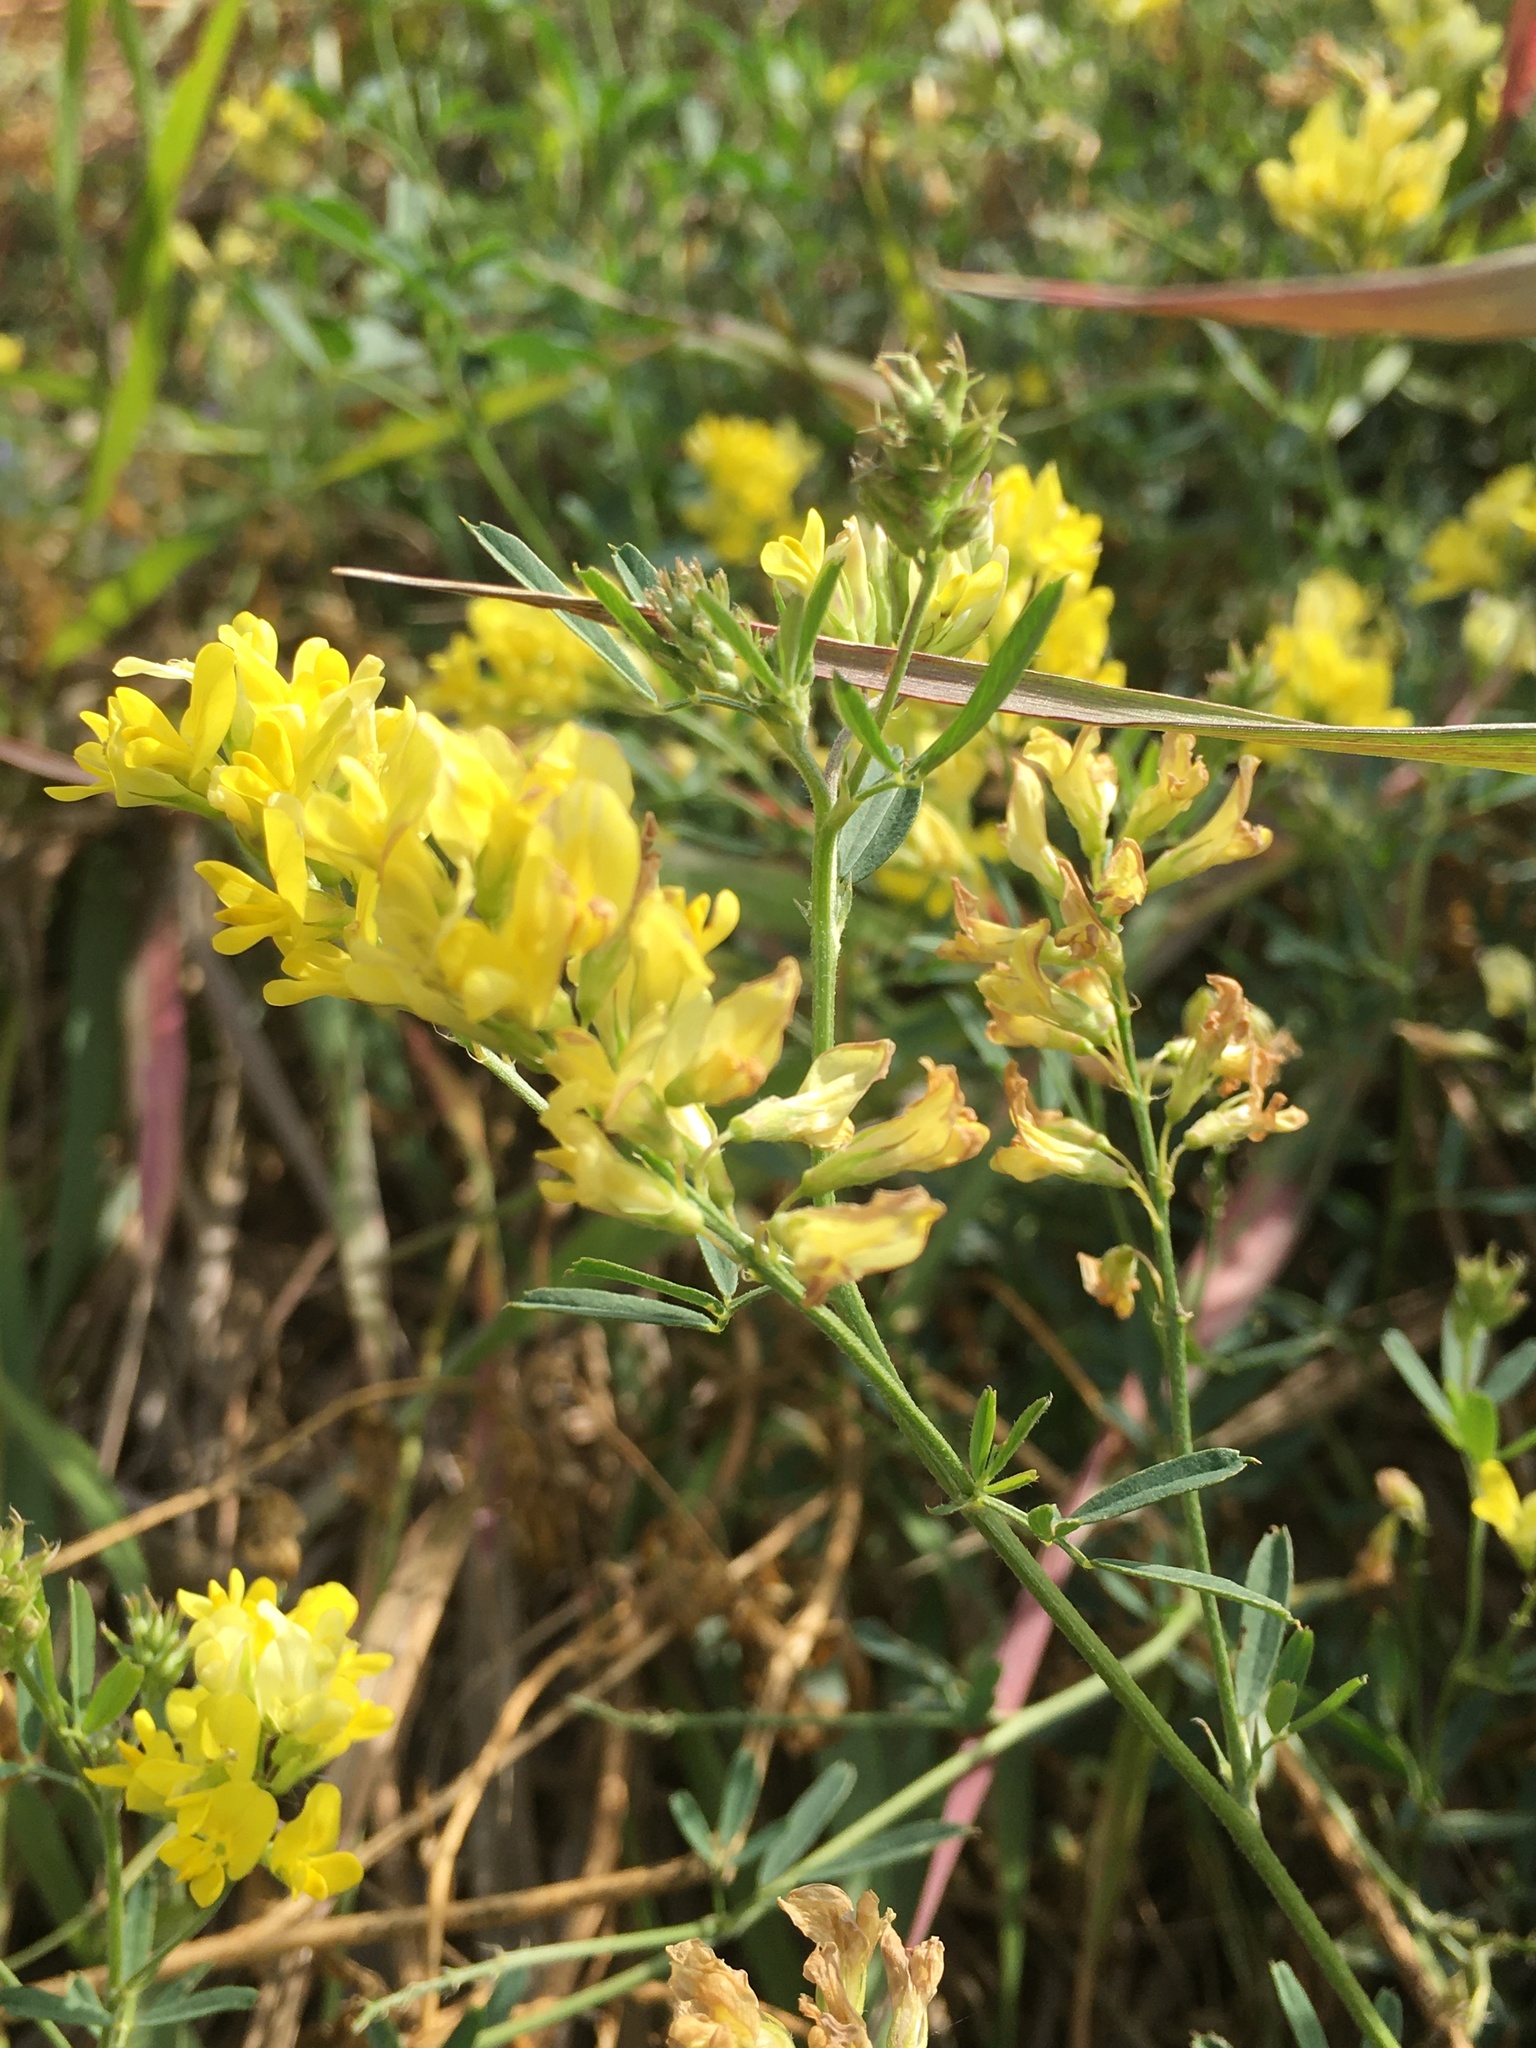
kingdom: Plantae
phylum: Tracheophyta
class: Magnoliopsida
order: Fabales
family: Fabaceae
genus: Medicago
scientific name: Medicago falcata
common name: Sickle medick
